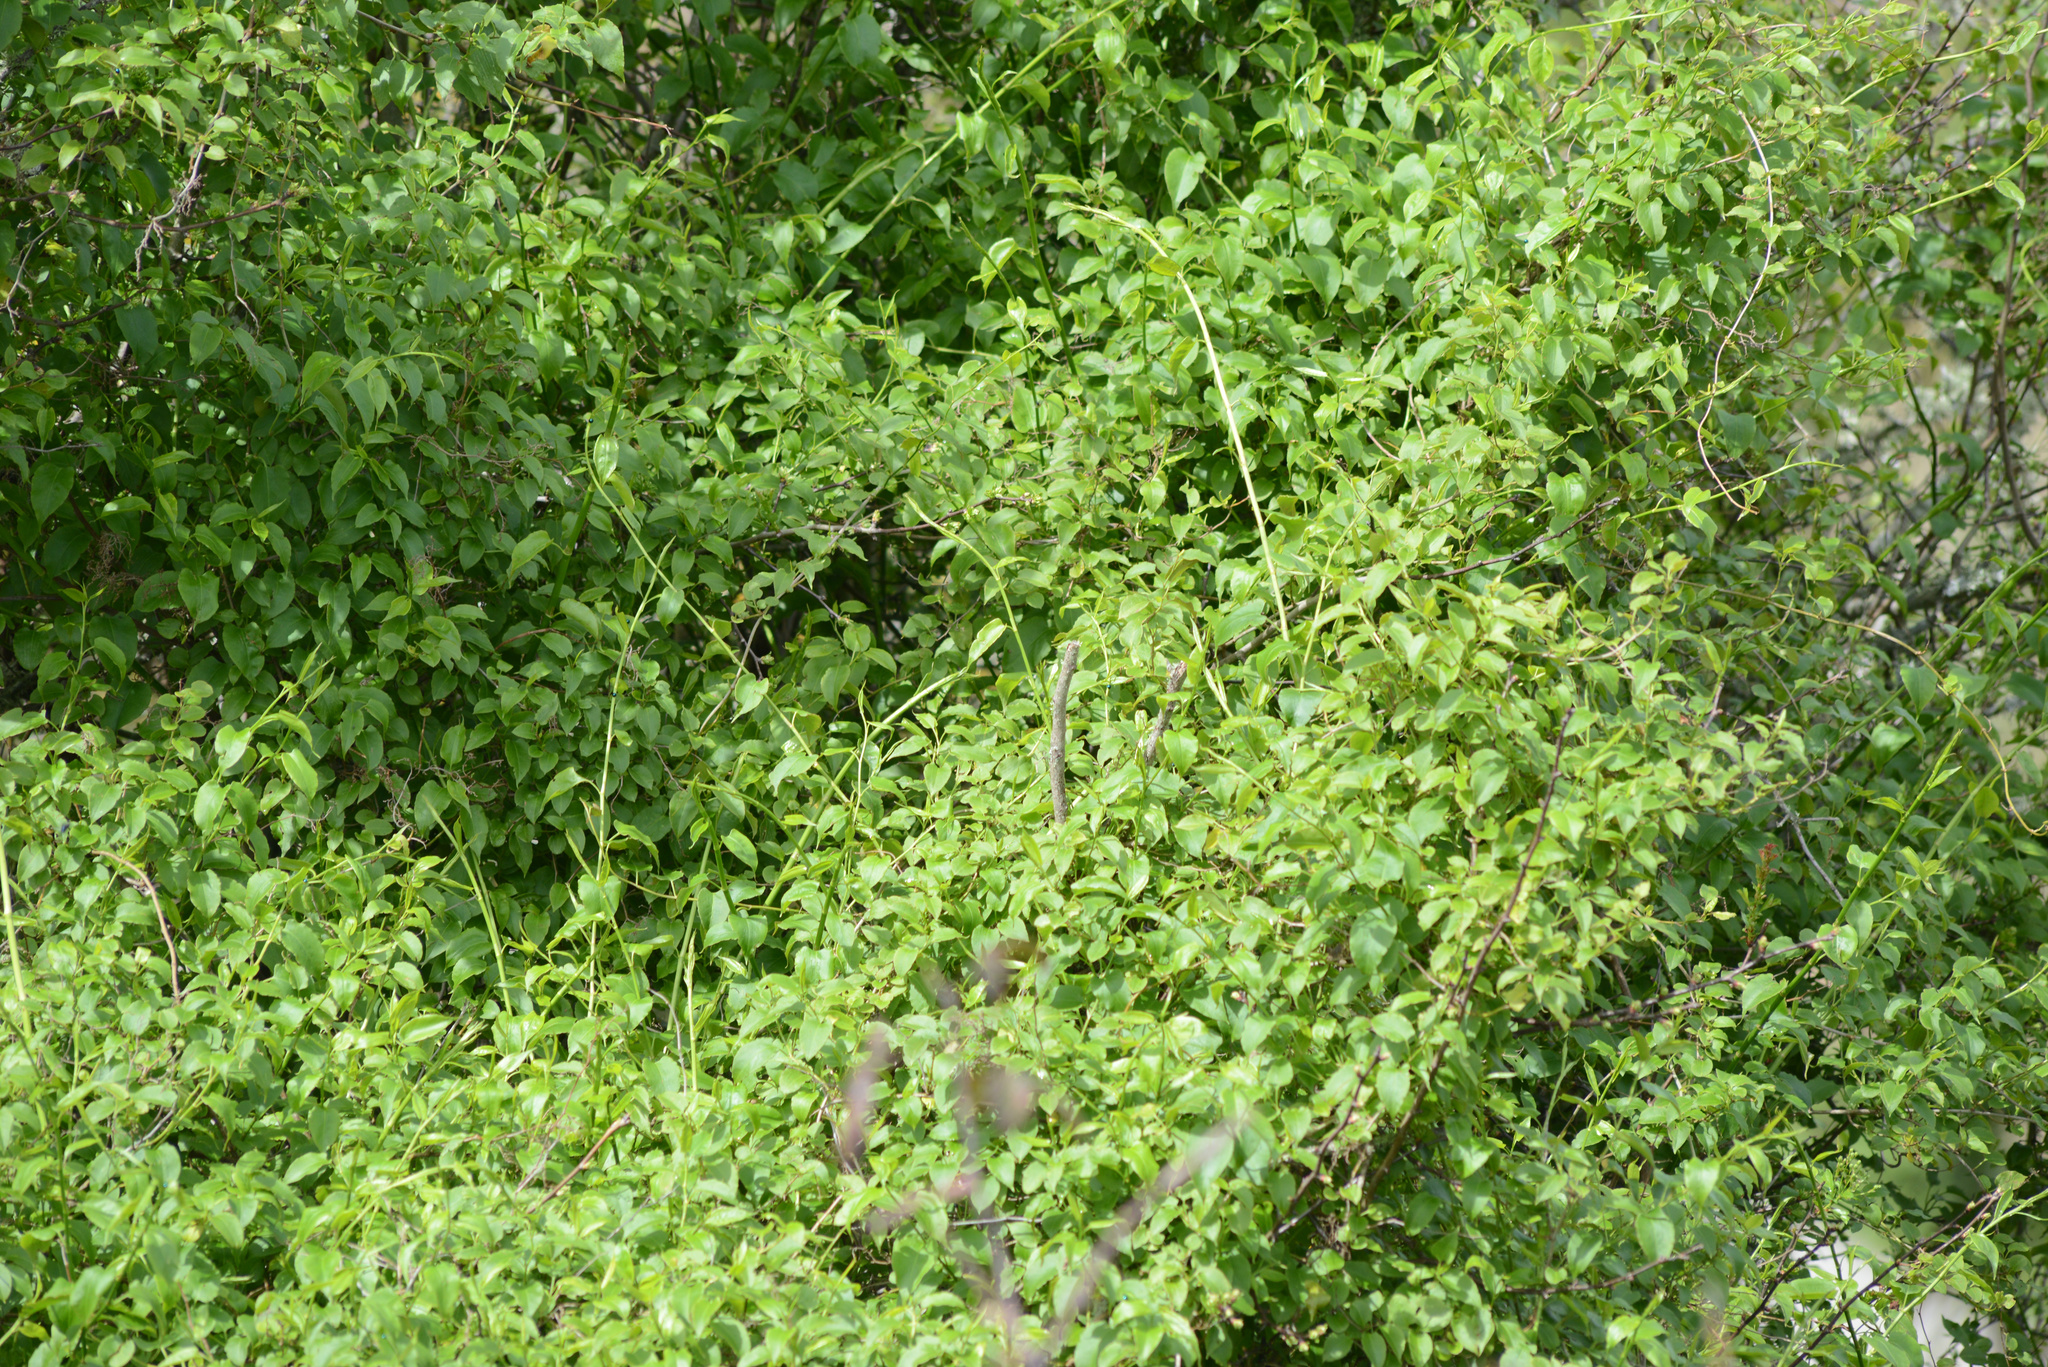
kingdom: Plantae
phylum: Tracheophyta
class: Magnoliopsida
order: Caryophyllales
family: Polygonaceae
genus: Muehlenbeckia
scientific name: Muehlenbeckia australis
